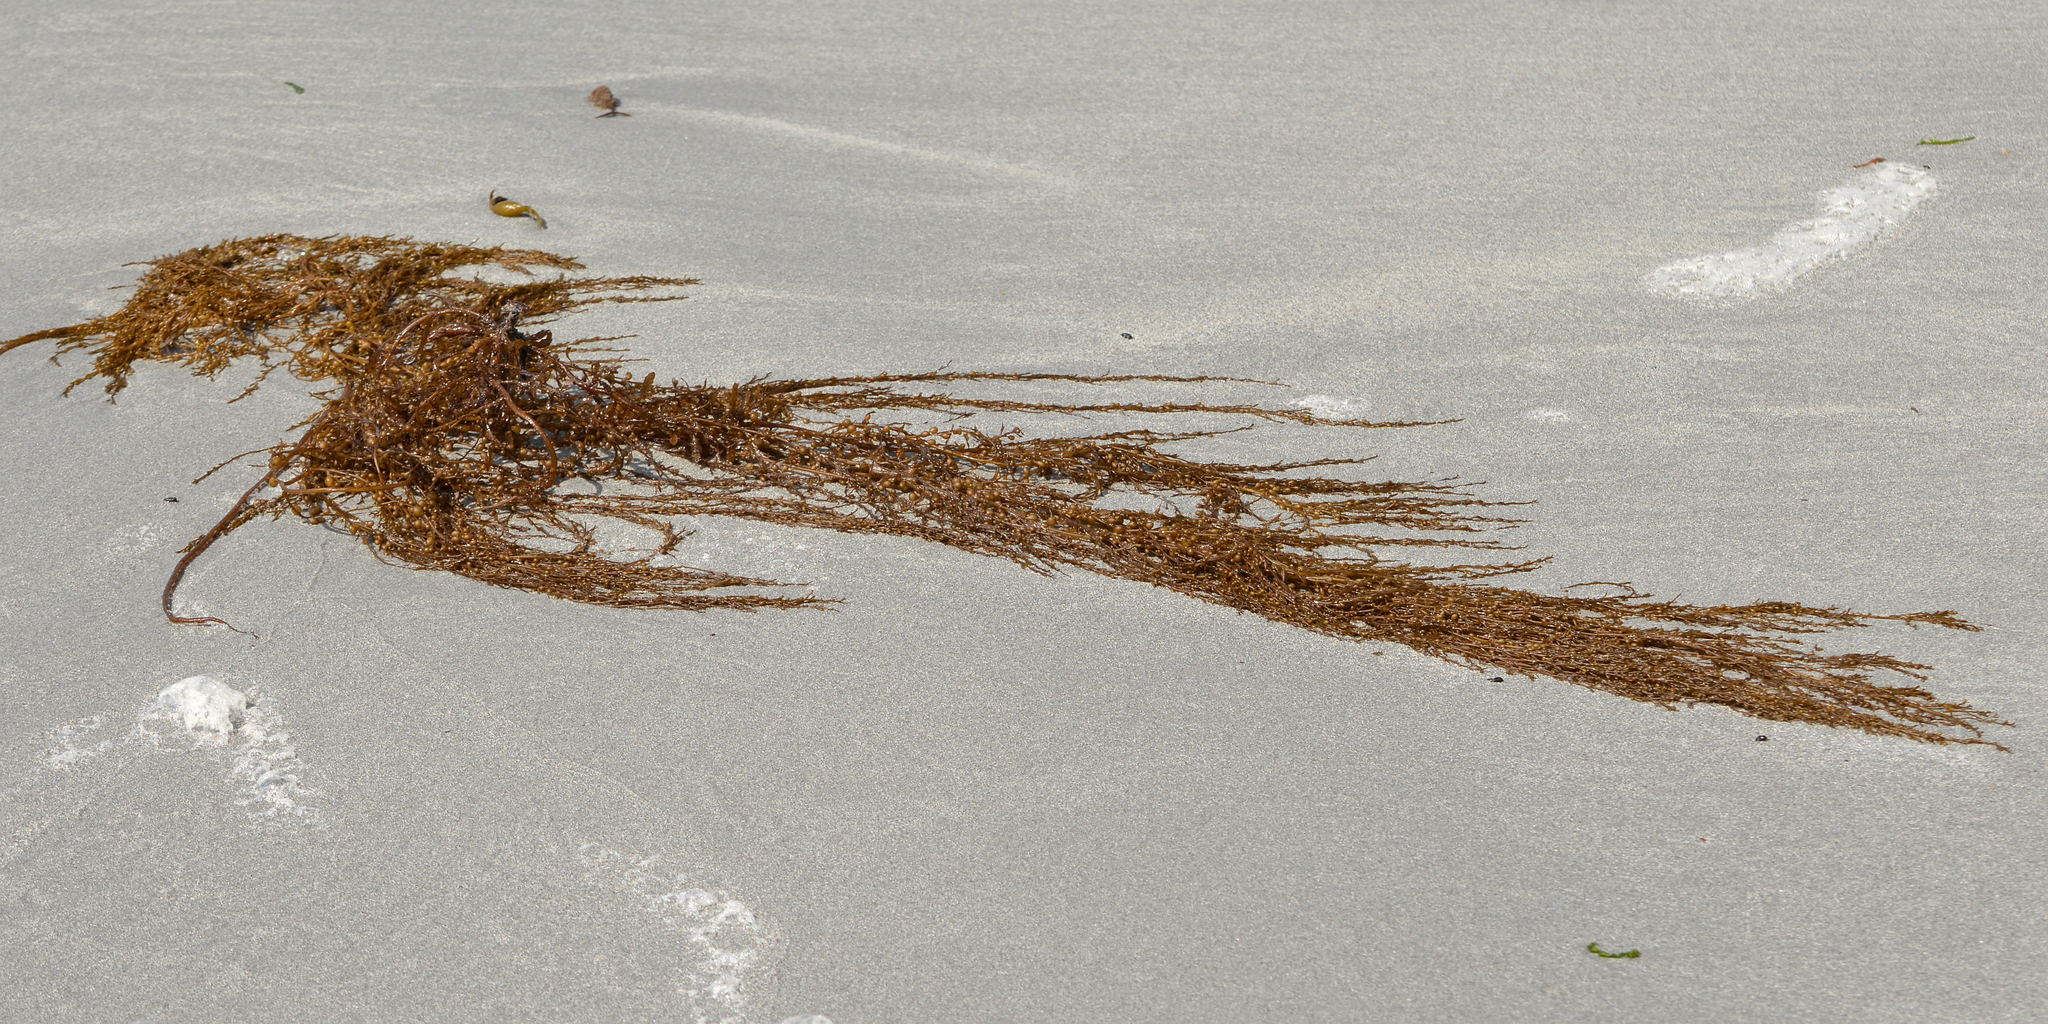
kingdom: Chromista
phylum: Ochrophyta
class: Phaeophyceae
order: Fucales
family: Sargassaceae
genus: Sargassum
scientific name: Sargassum muticum
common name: Japweed
